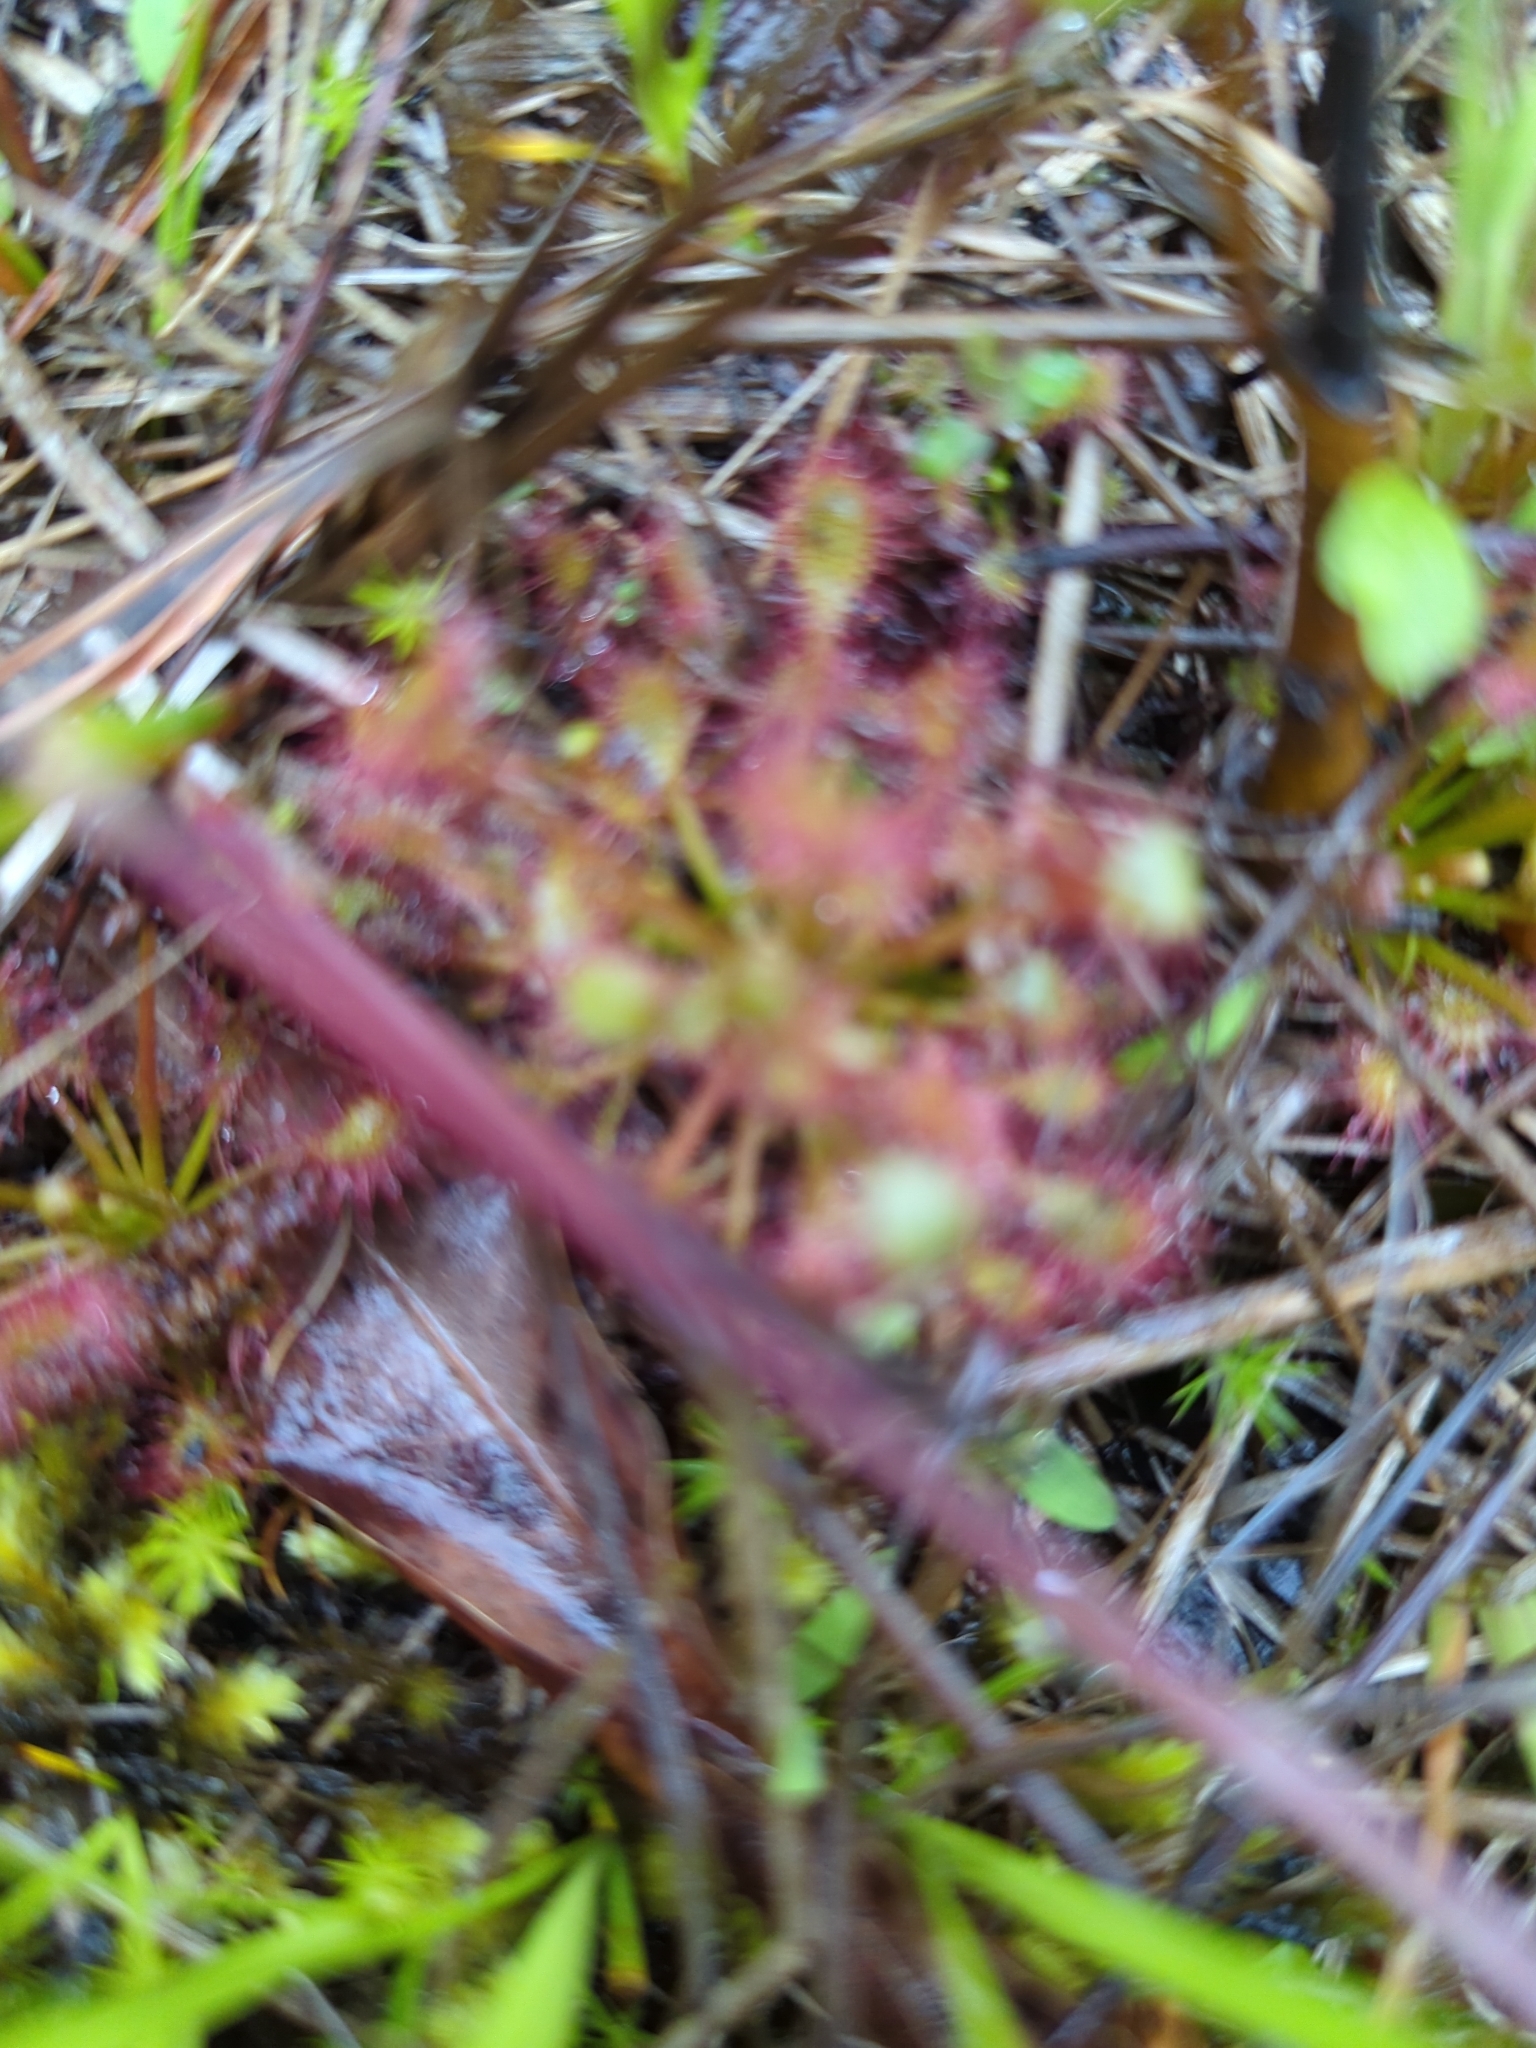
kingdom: Plantae
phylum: Tracheophyta
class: Magnoliopsida
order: Caryophyllales
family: Droseraceae
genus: Drosera
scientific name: Drosera intermedia
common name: Oblong-leaved sundew
